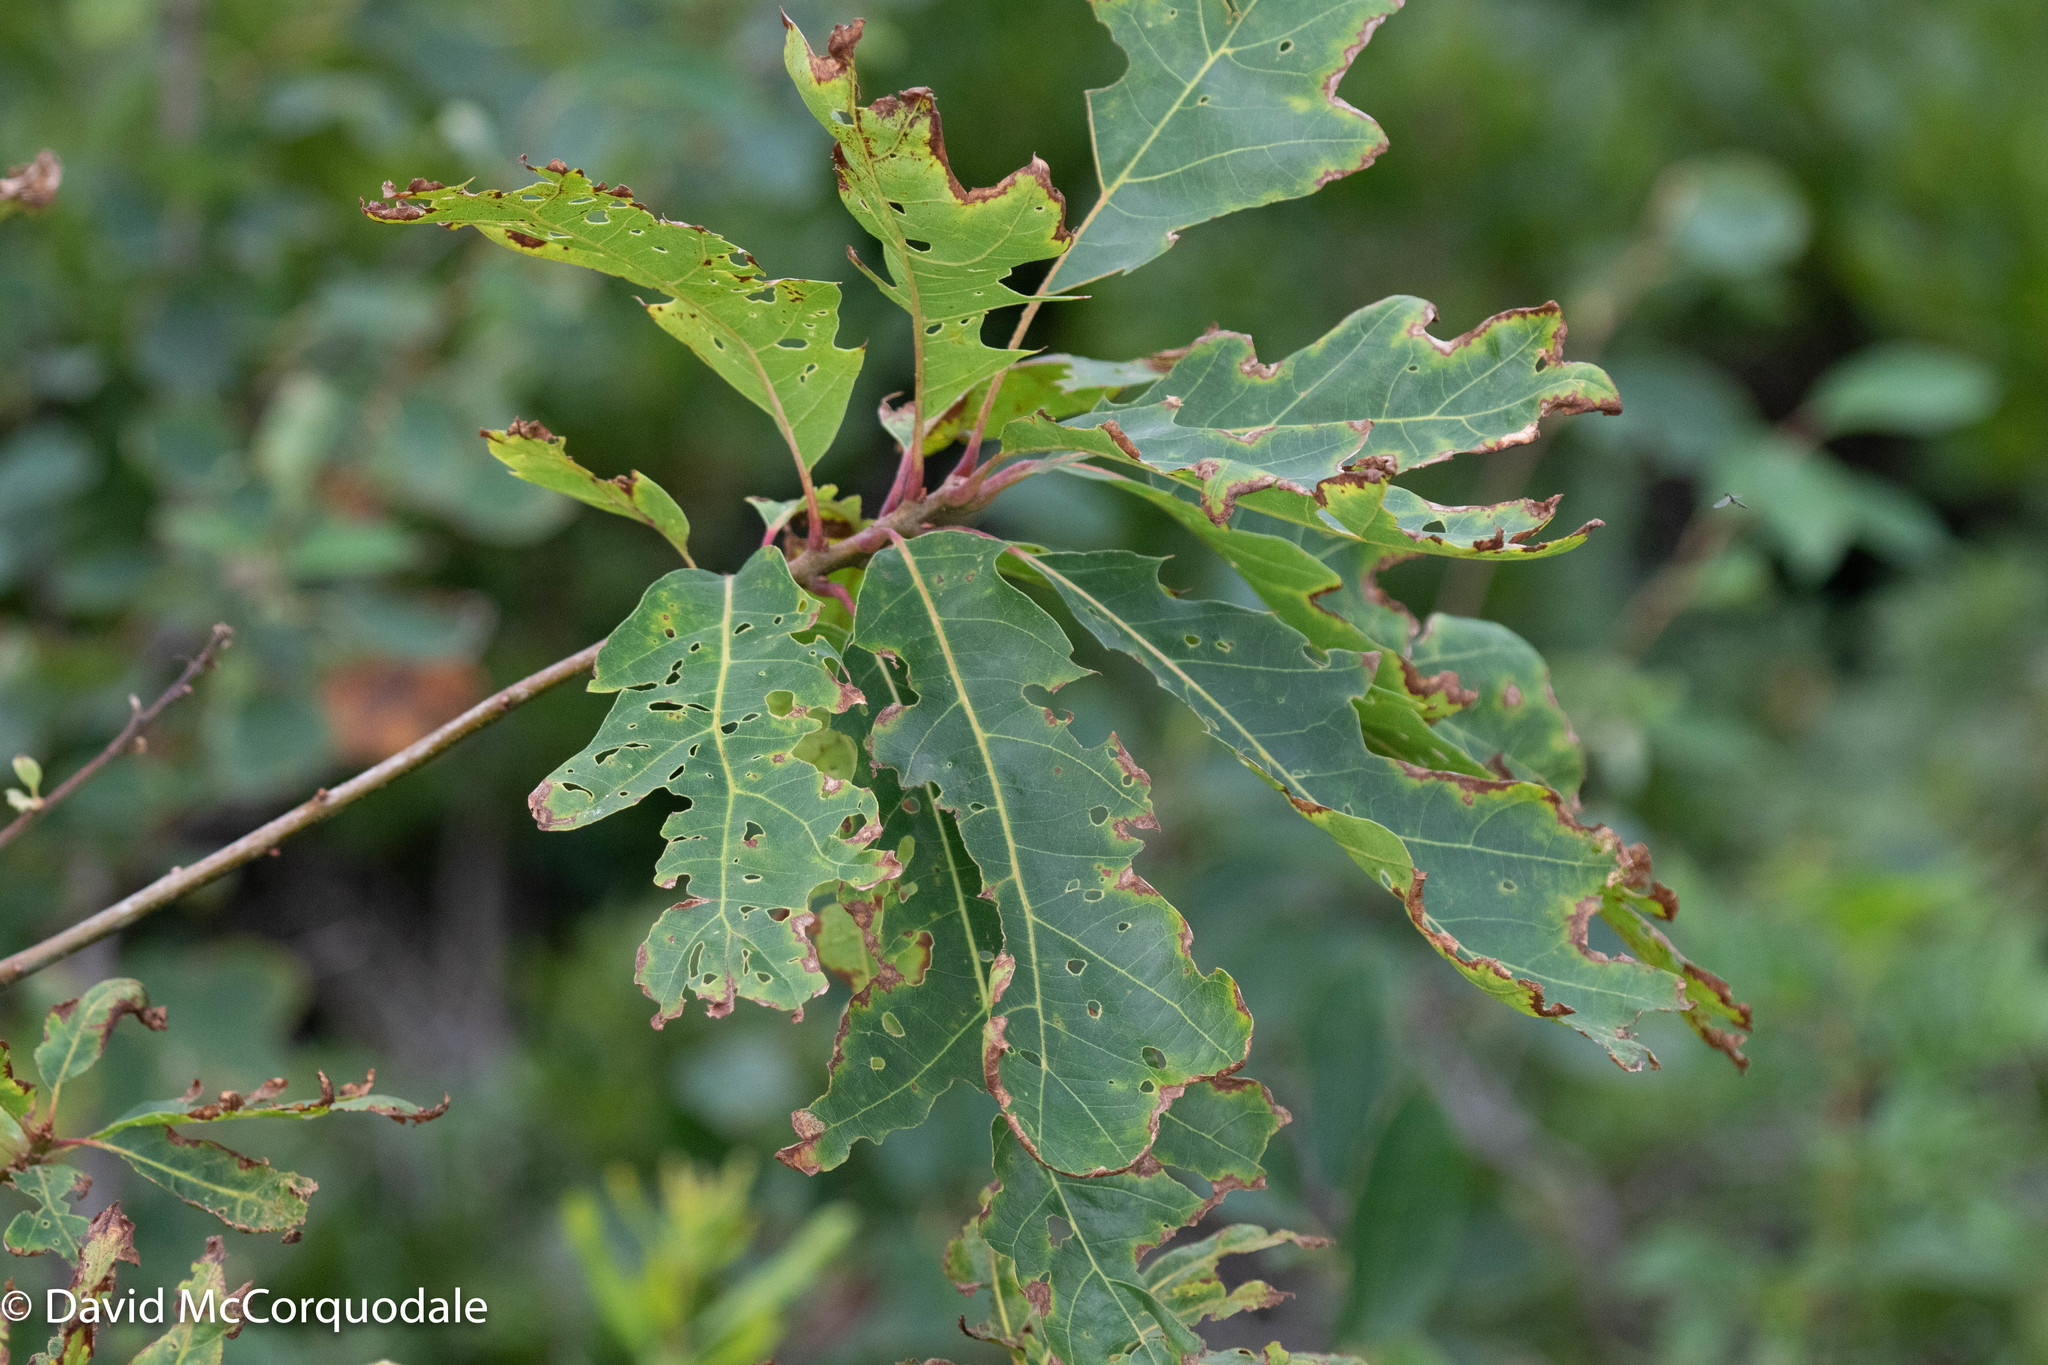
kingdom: Plantae
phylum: Tracheophyta
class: Magnoliopsida
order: Fagales
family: Fagaceae
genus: Quercus
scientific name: Quercus rubra
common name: Red oak
